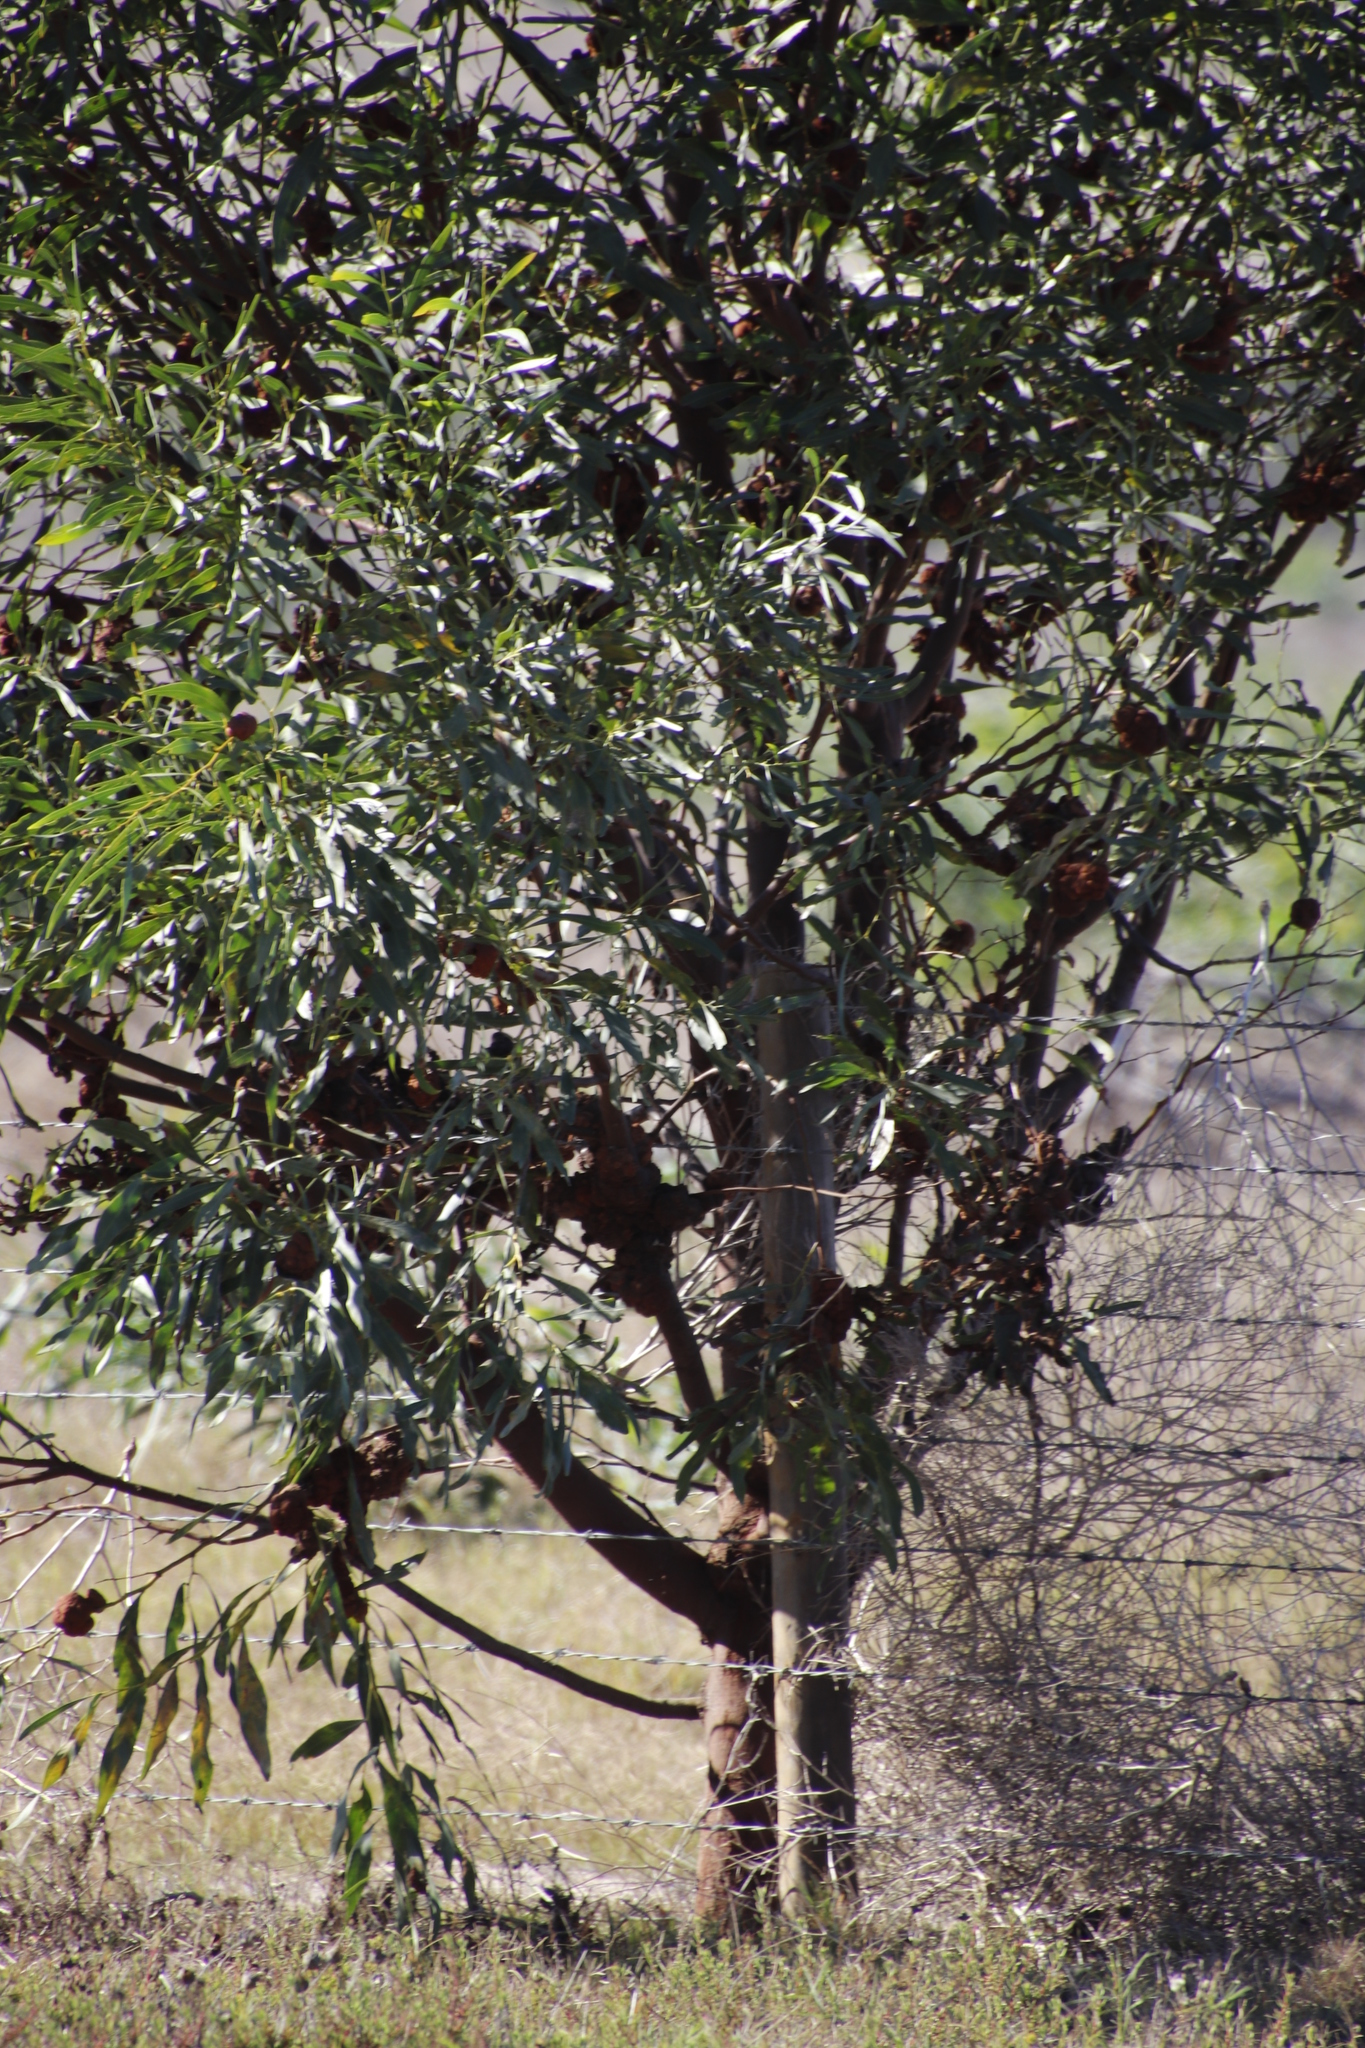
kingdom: Fungi
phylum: Basidiomycota
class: Pucciniomycetes
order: Pucciniales
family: Uromycladiaceae
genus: Uromycladium
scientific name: Uromycladium morrisii
